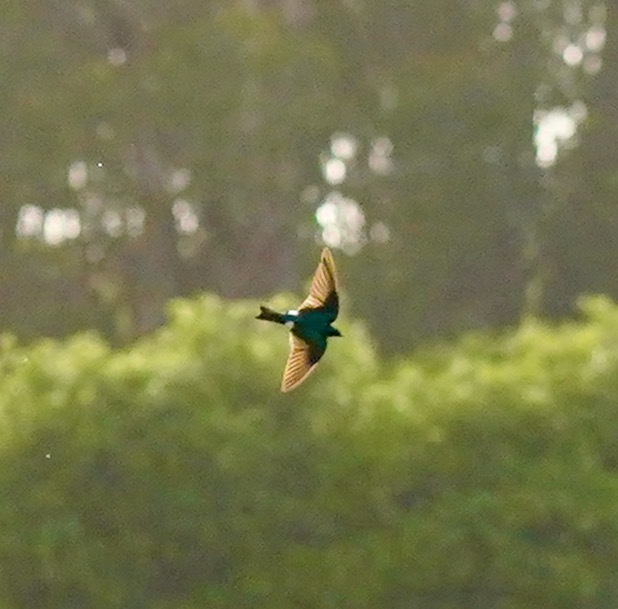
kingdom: Animalia
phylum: Chordata
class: Aves
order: Passeriformes
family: Hirundinidae
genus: Tachycineta
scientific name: Tachycineta bicolor
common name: Tree swallow
